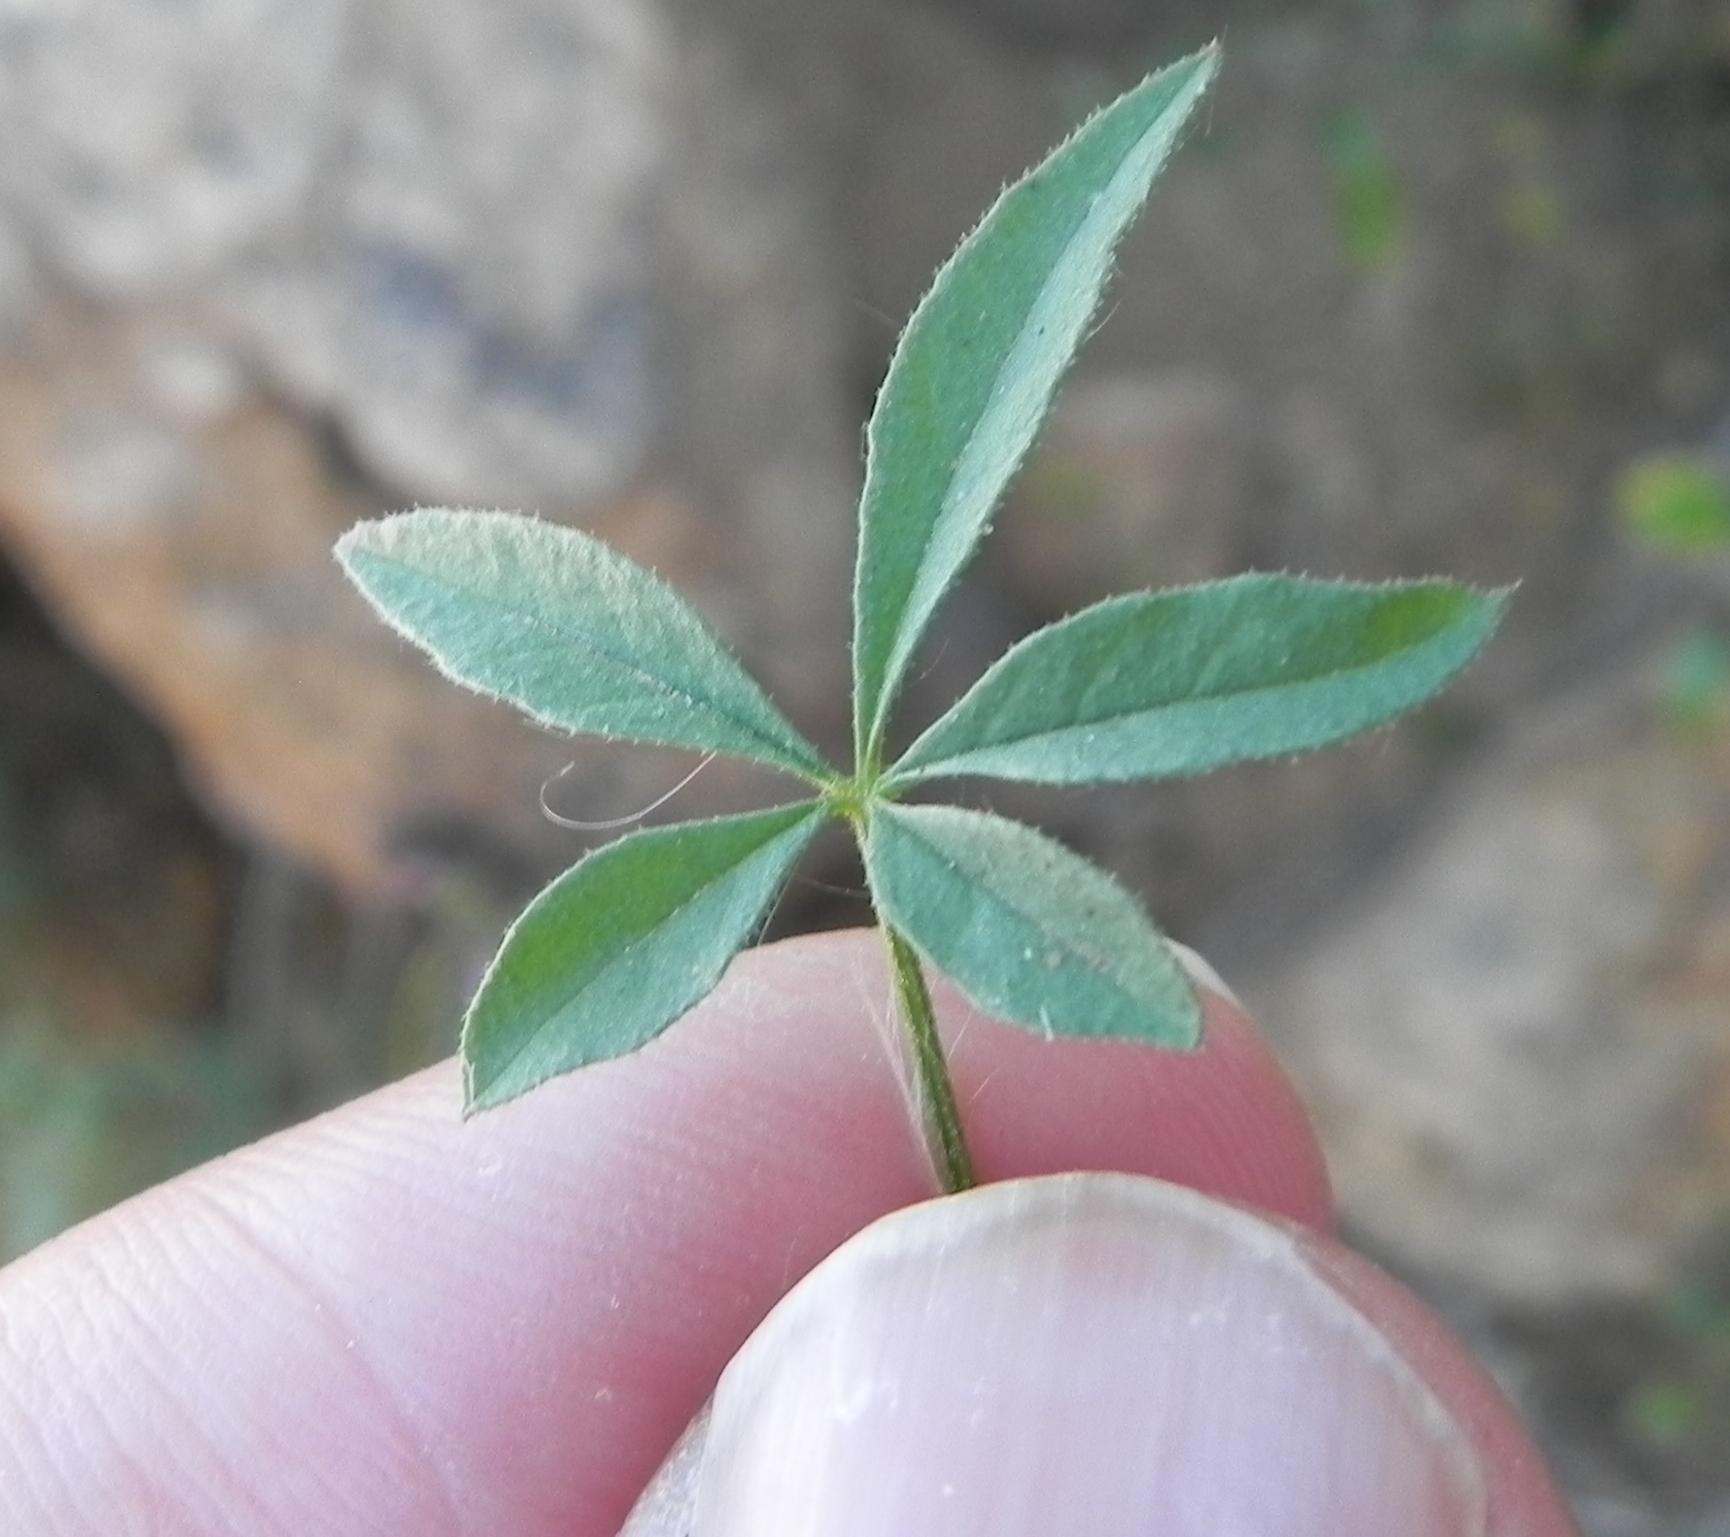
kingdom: Plantae
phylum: Tracheophyta
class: Magnoliopsida
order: Brassicales
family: Cleomaceae
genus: Sieruela
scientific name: Sieruela oxyphylla
